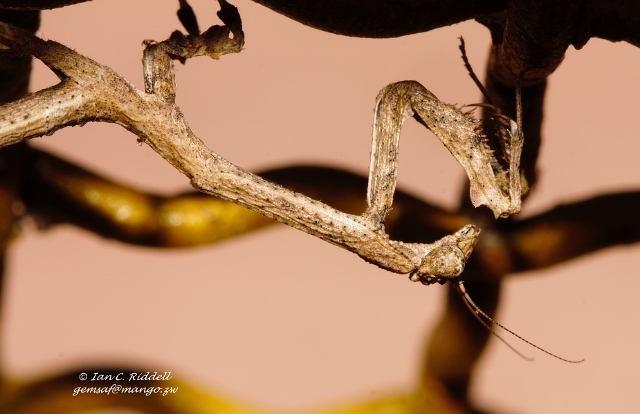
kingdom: Animalia
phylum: Arthropoda
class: Insecta
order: Mantodea
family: Deroplatyidae
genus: Popa
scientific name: Popa spurca
